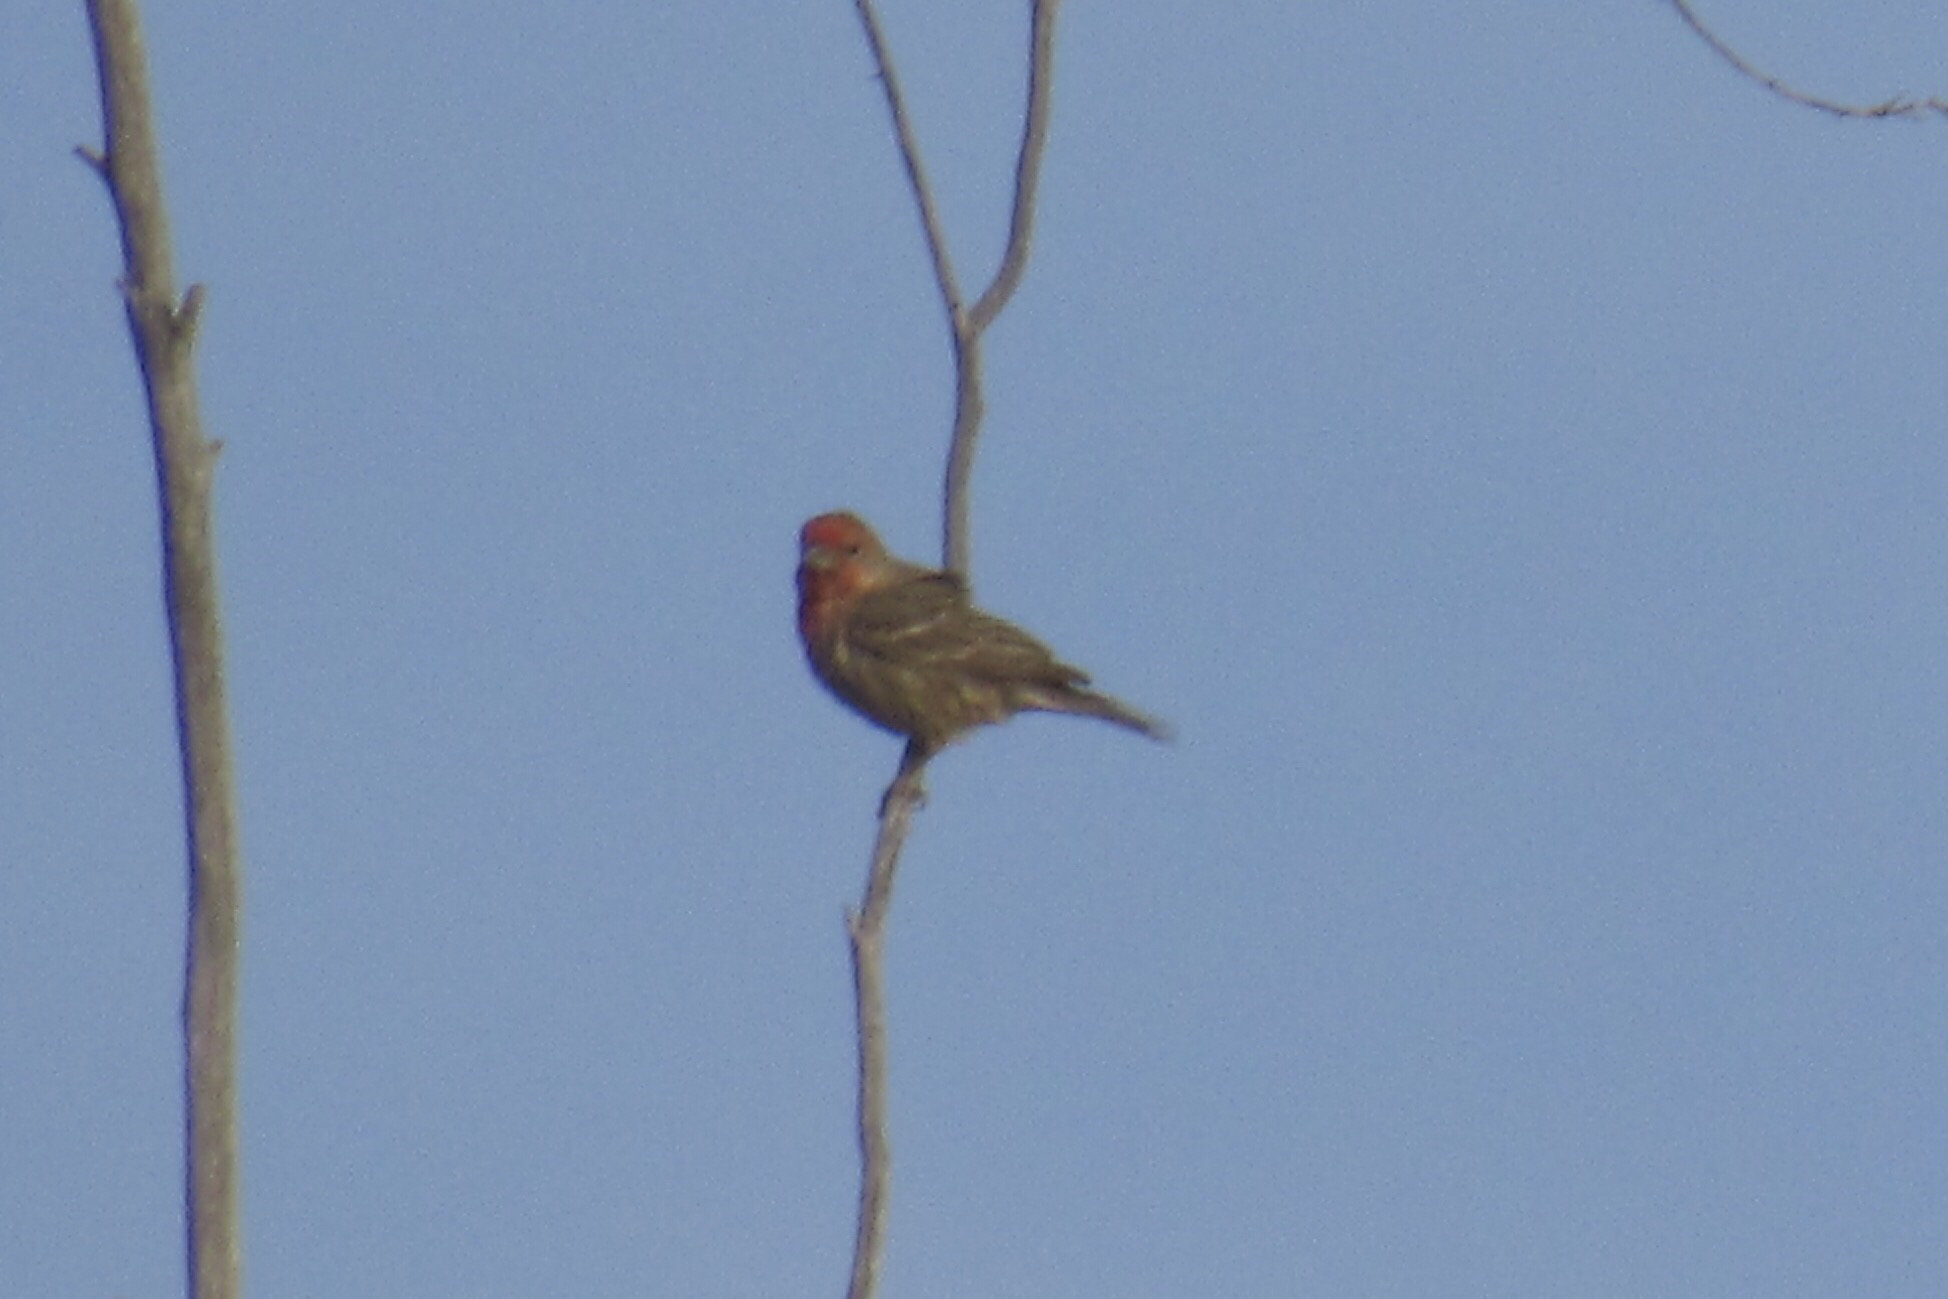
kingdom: Animalia
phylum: Chordata
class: Aves
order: Passeriformes
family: Fringillidae
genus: Haemorhous
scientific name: Haemorhous mexicanus
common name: House finch
